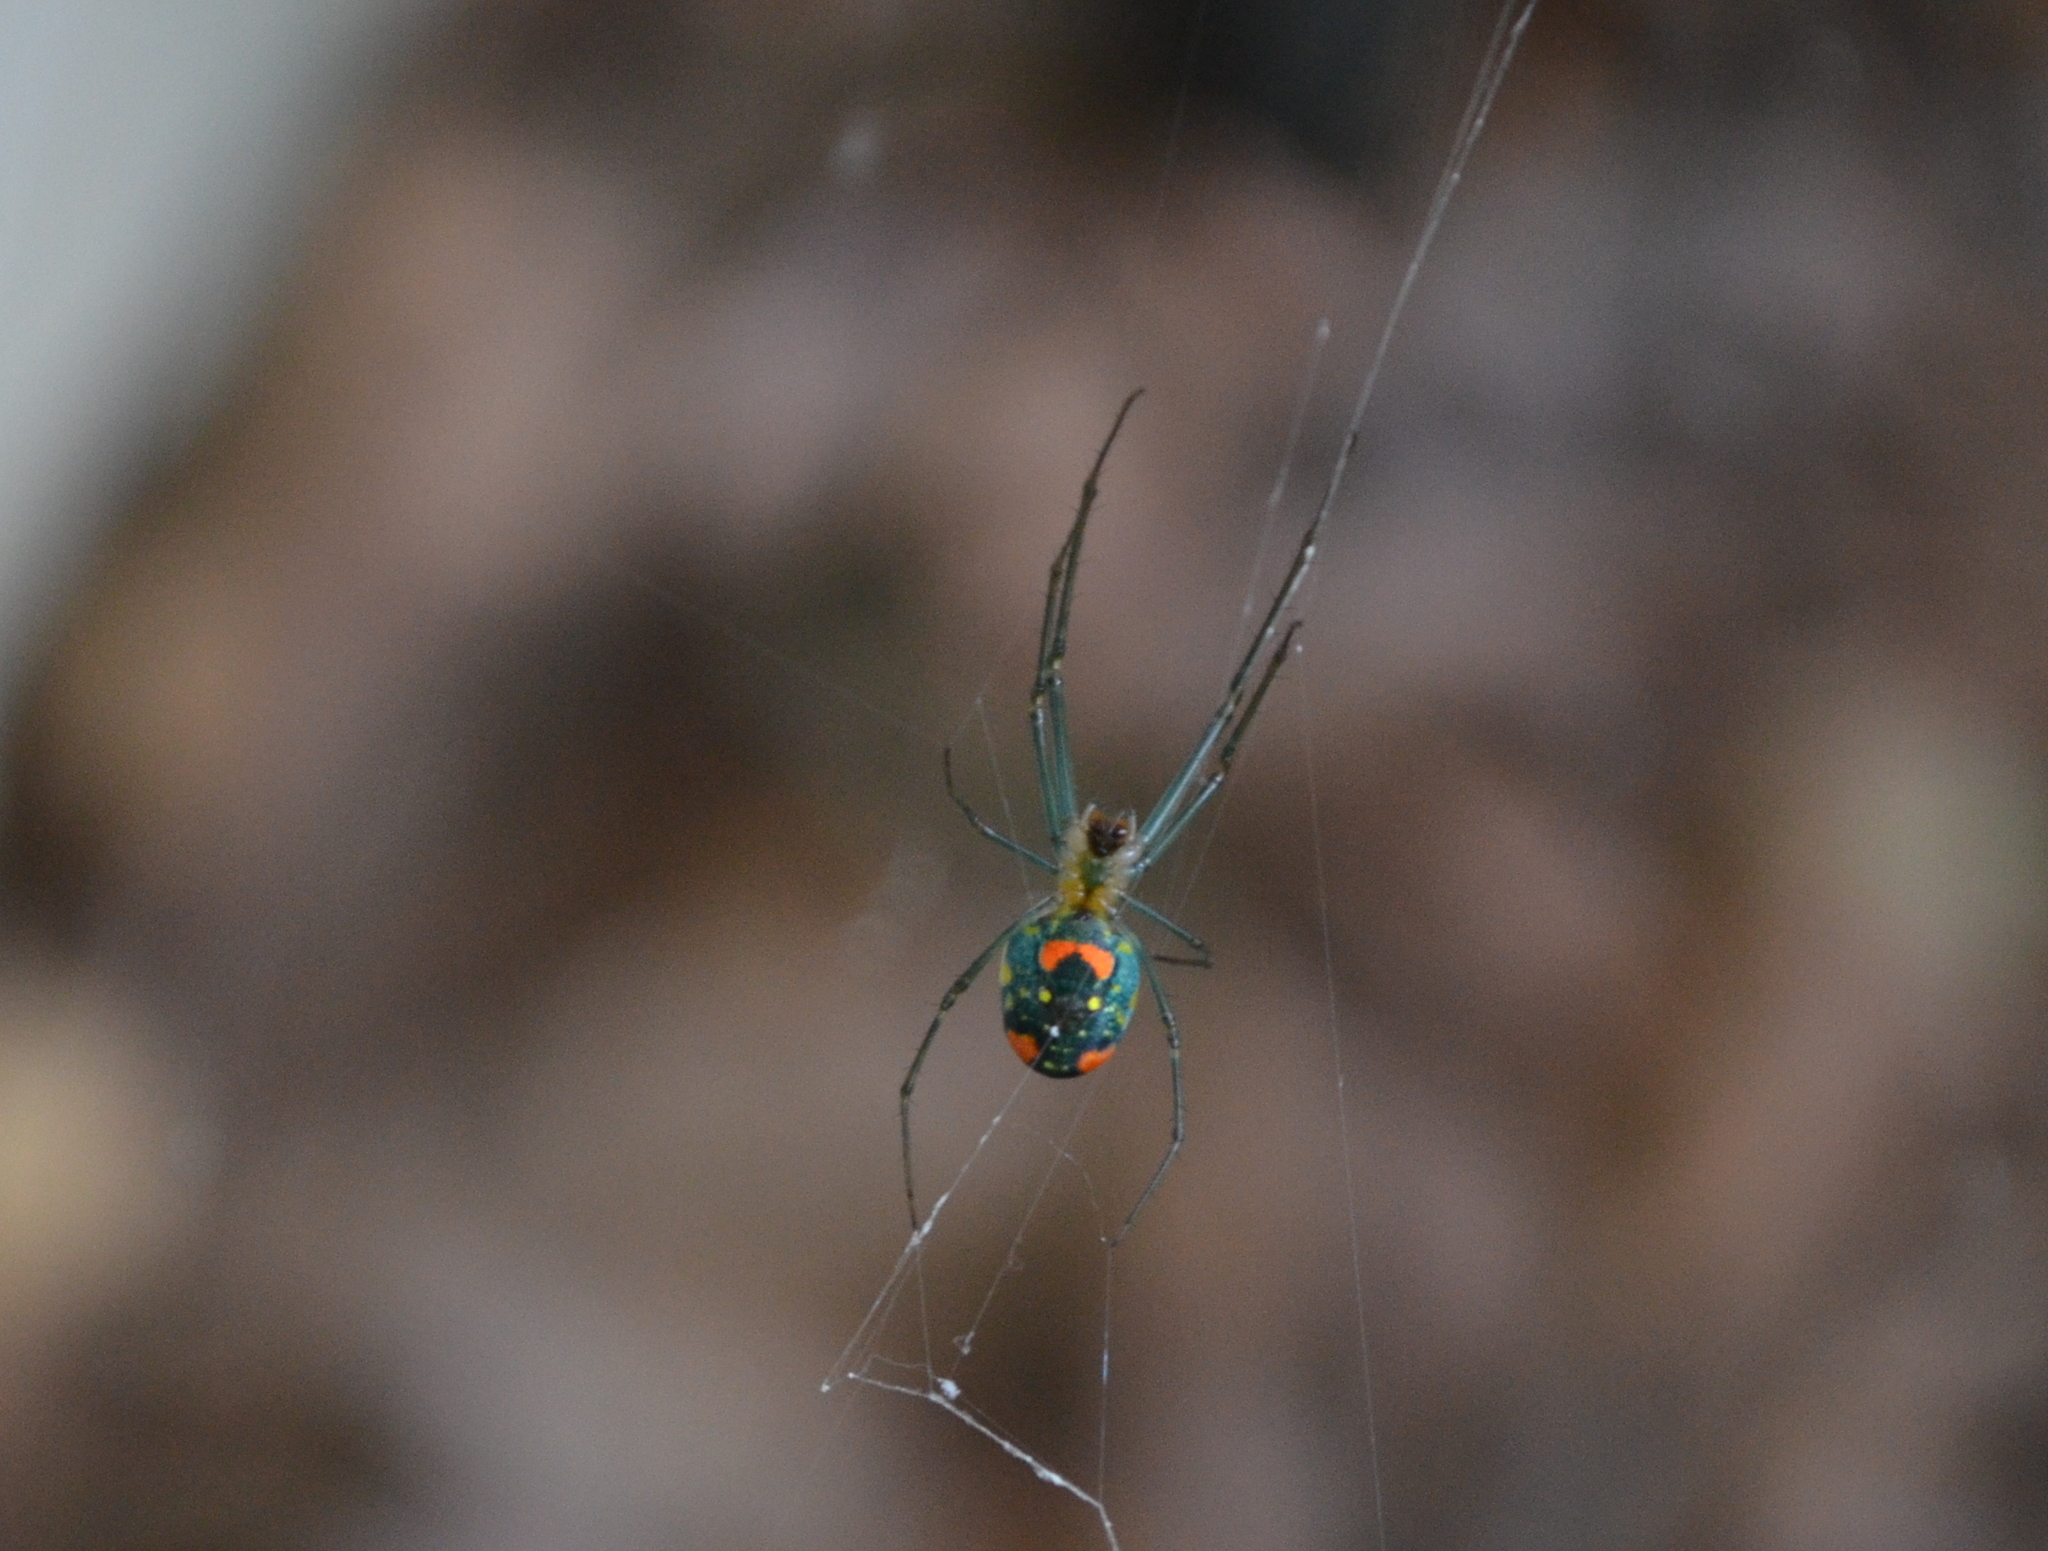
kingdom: Animalia
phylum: Arthropoda
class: Arachnida
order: Araneae
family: Tetragnathidae
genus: Leucauge
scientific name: Leucauge argyrobapta
